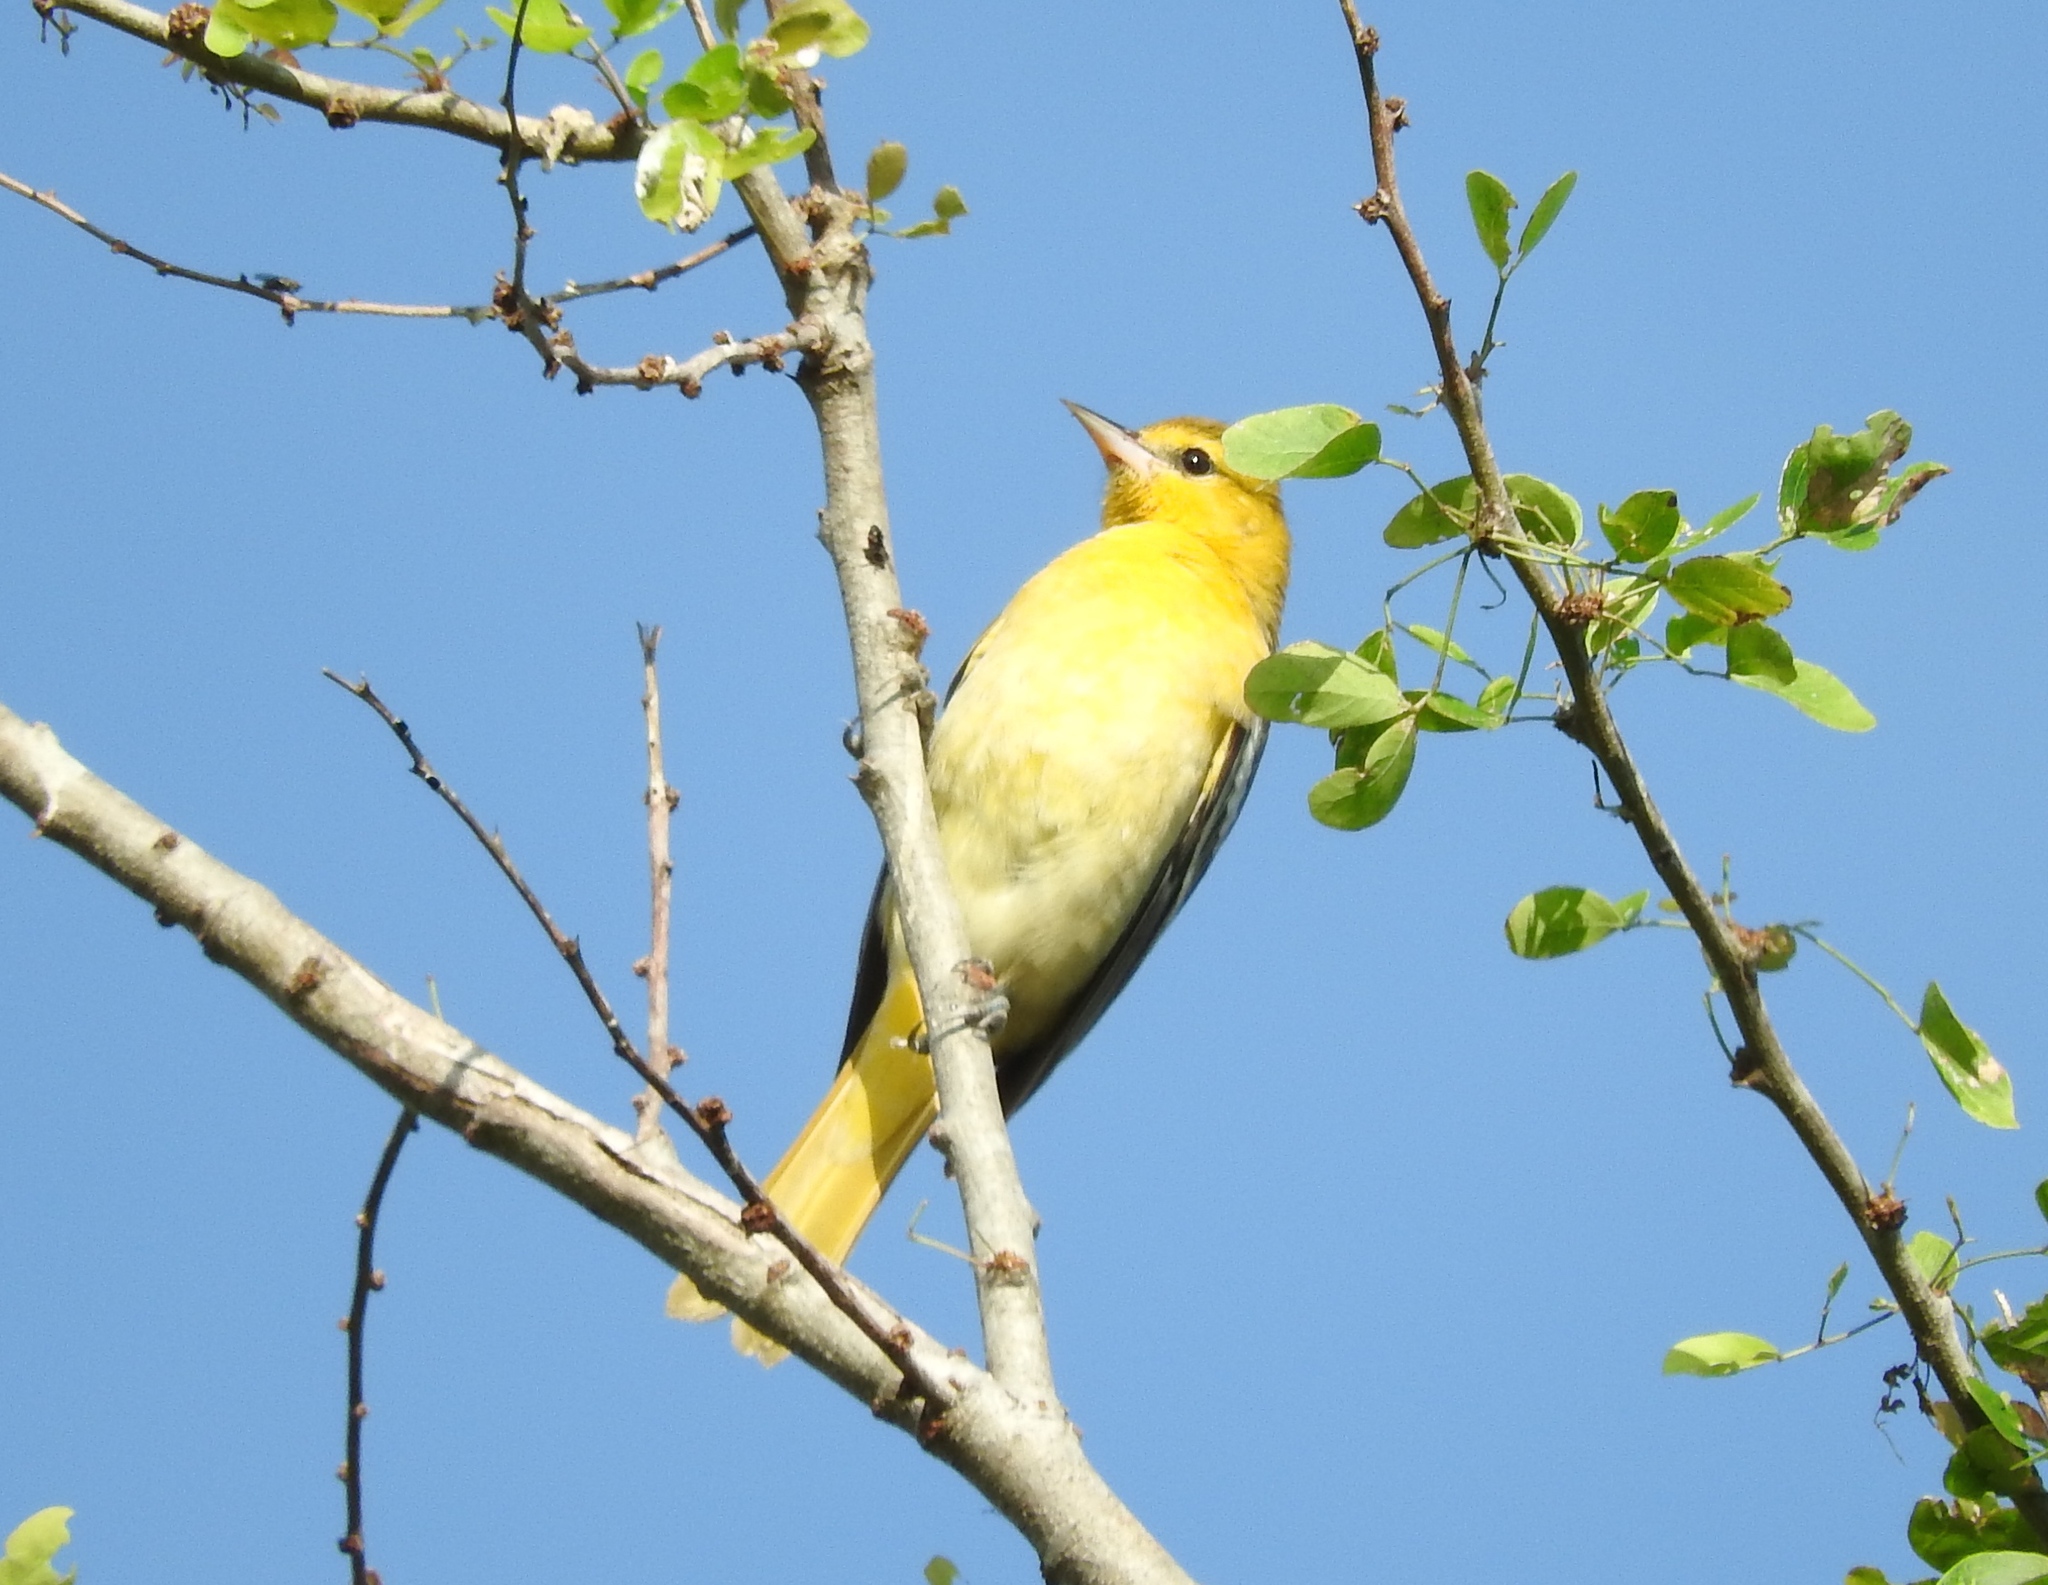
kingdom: Animalia
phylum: Chordata
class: Aves
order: Passeriformes
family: Icteridae
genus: Icterus
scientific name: Icterus spurius
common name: Orchard oriole
